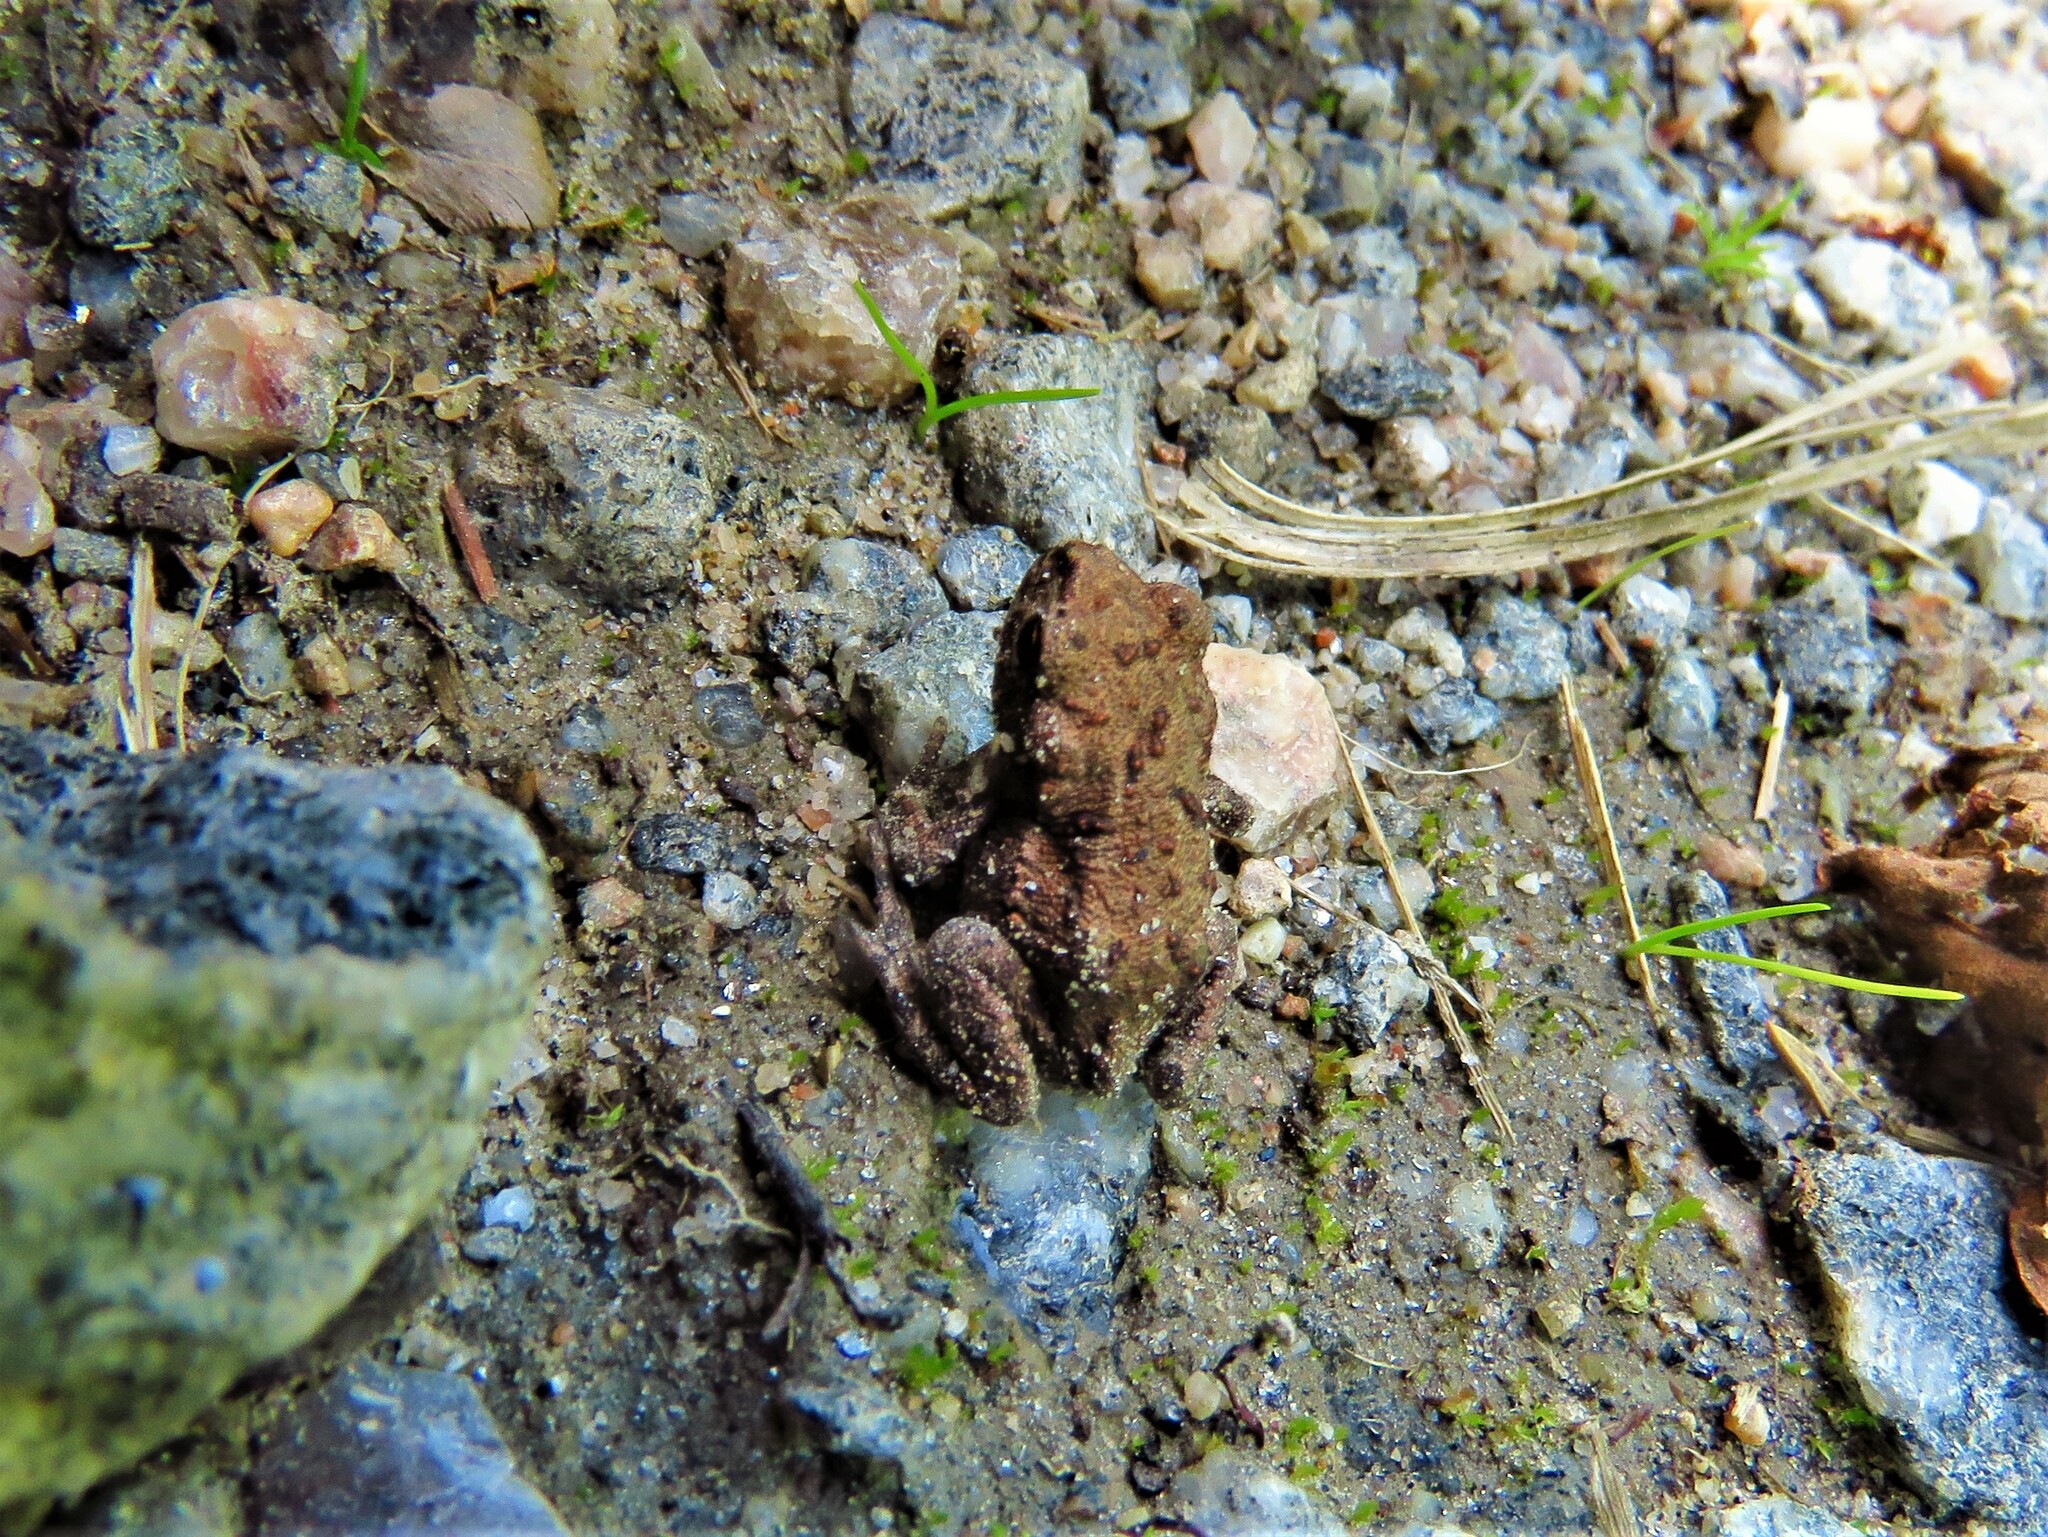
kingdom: Animalia
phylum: Chordata
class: Amphibia
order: Anura
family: Bufonidae
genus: Bufo
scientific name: Bufo bufo
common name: Common toad
